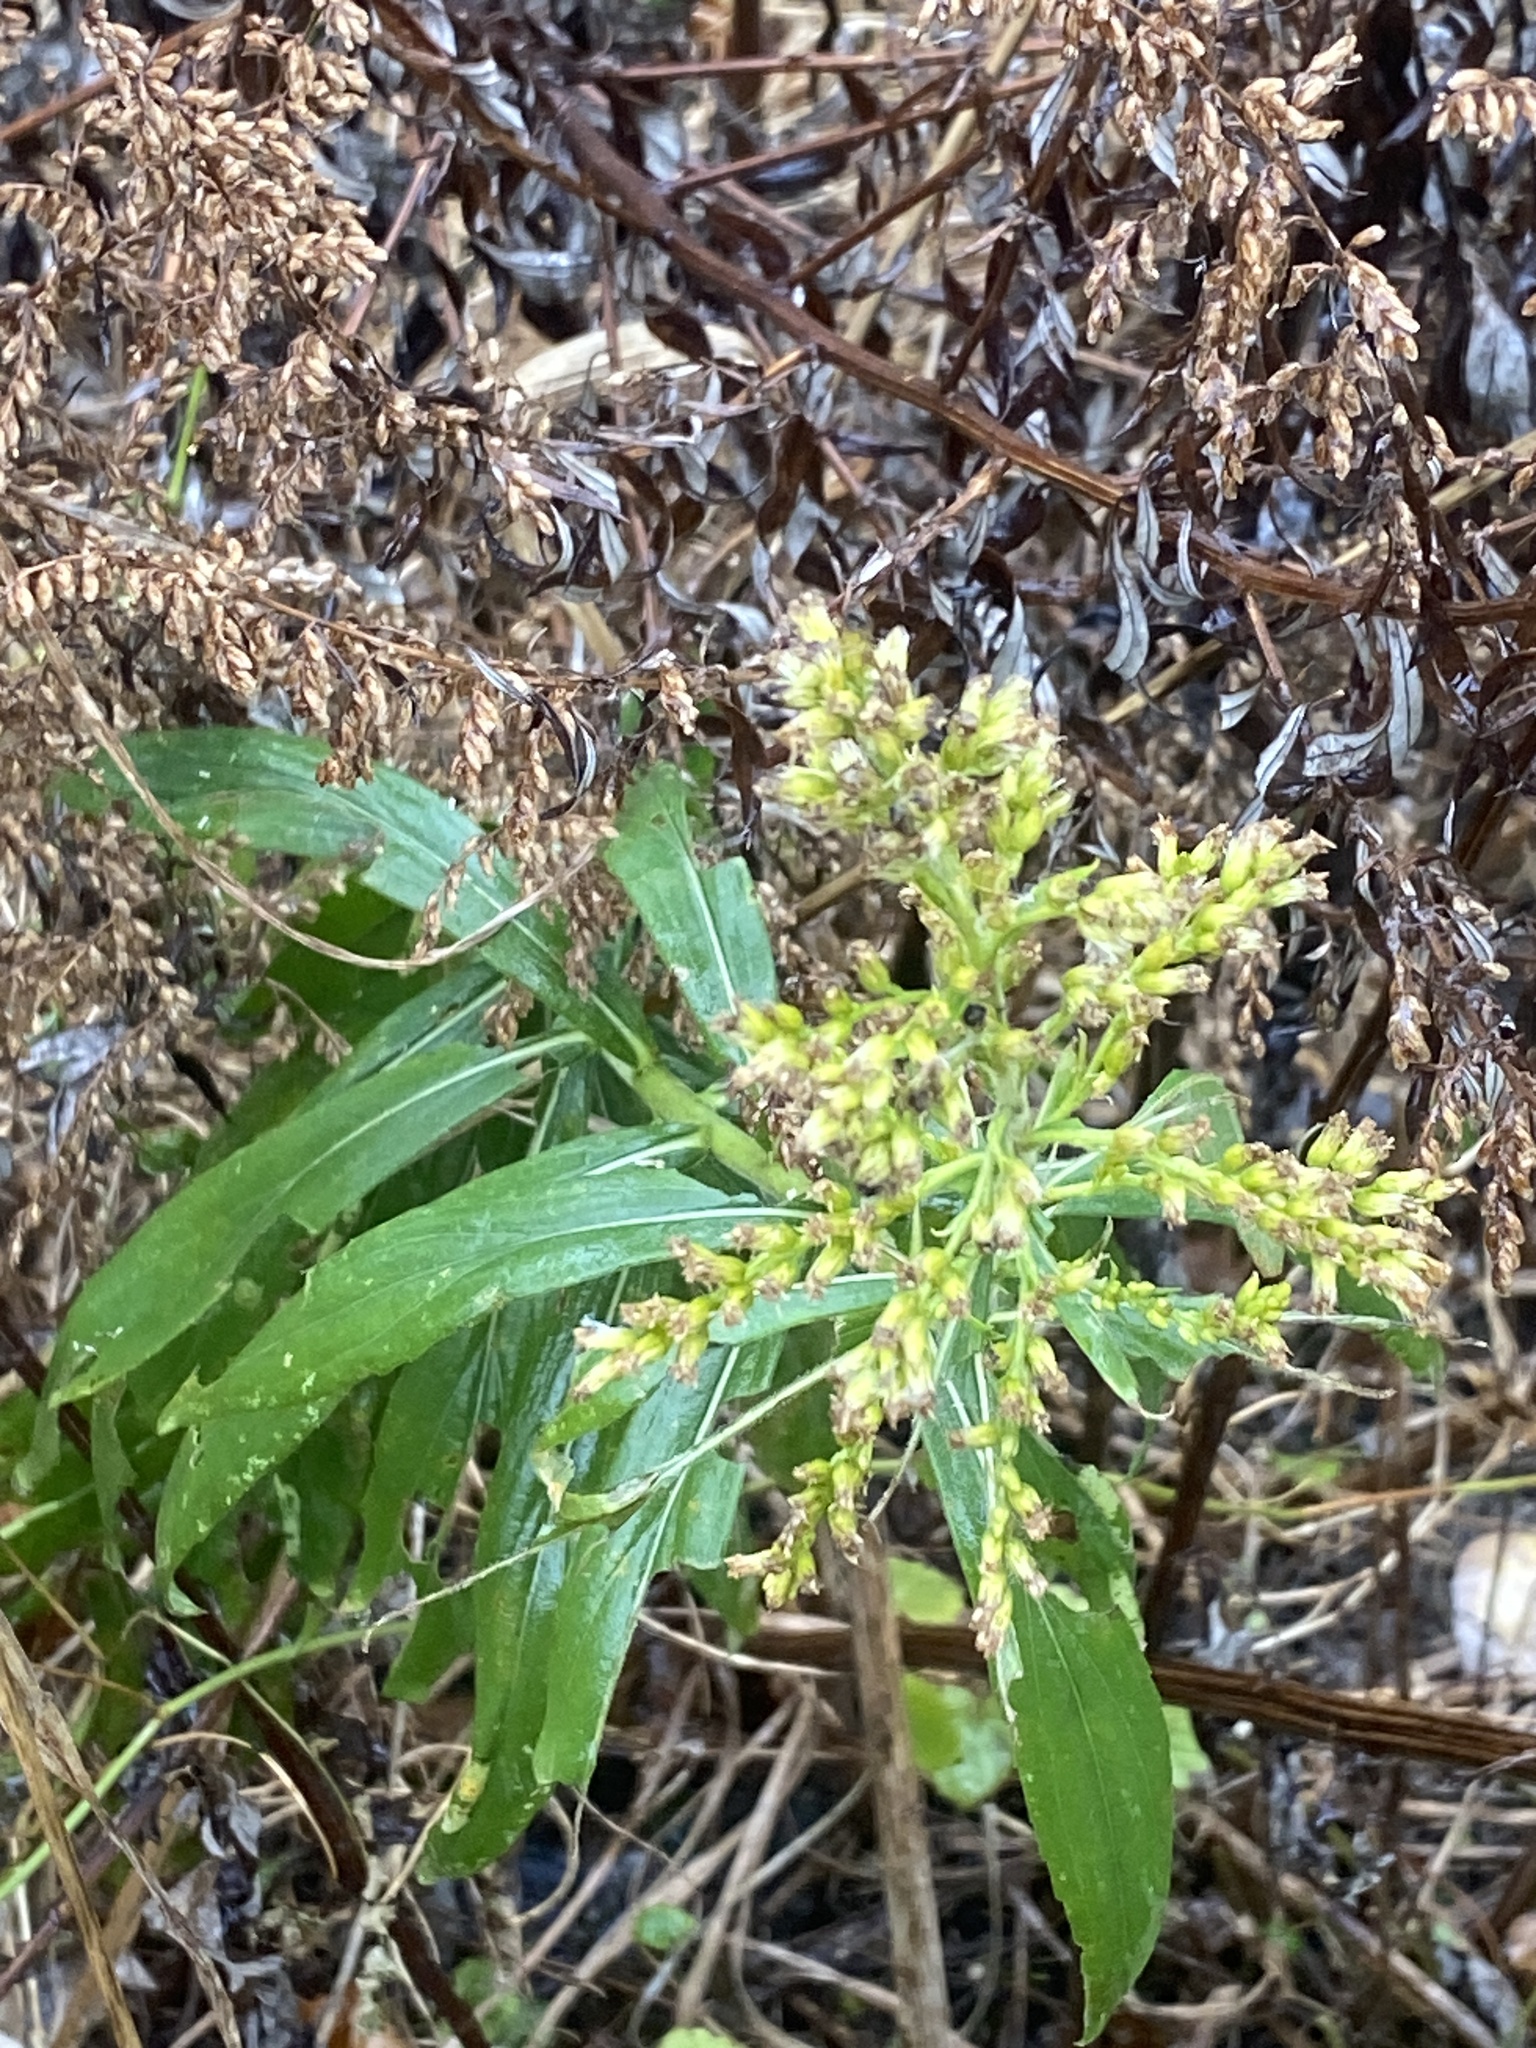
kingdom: Plantae
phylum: Tracheophyta
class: Magnoliopsida
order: Asterales
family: Asteraceae
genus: Solidago
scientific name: Solidago altissima
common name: Late goldenrod
